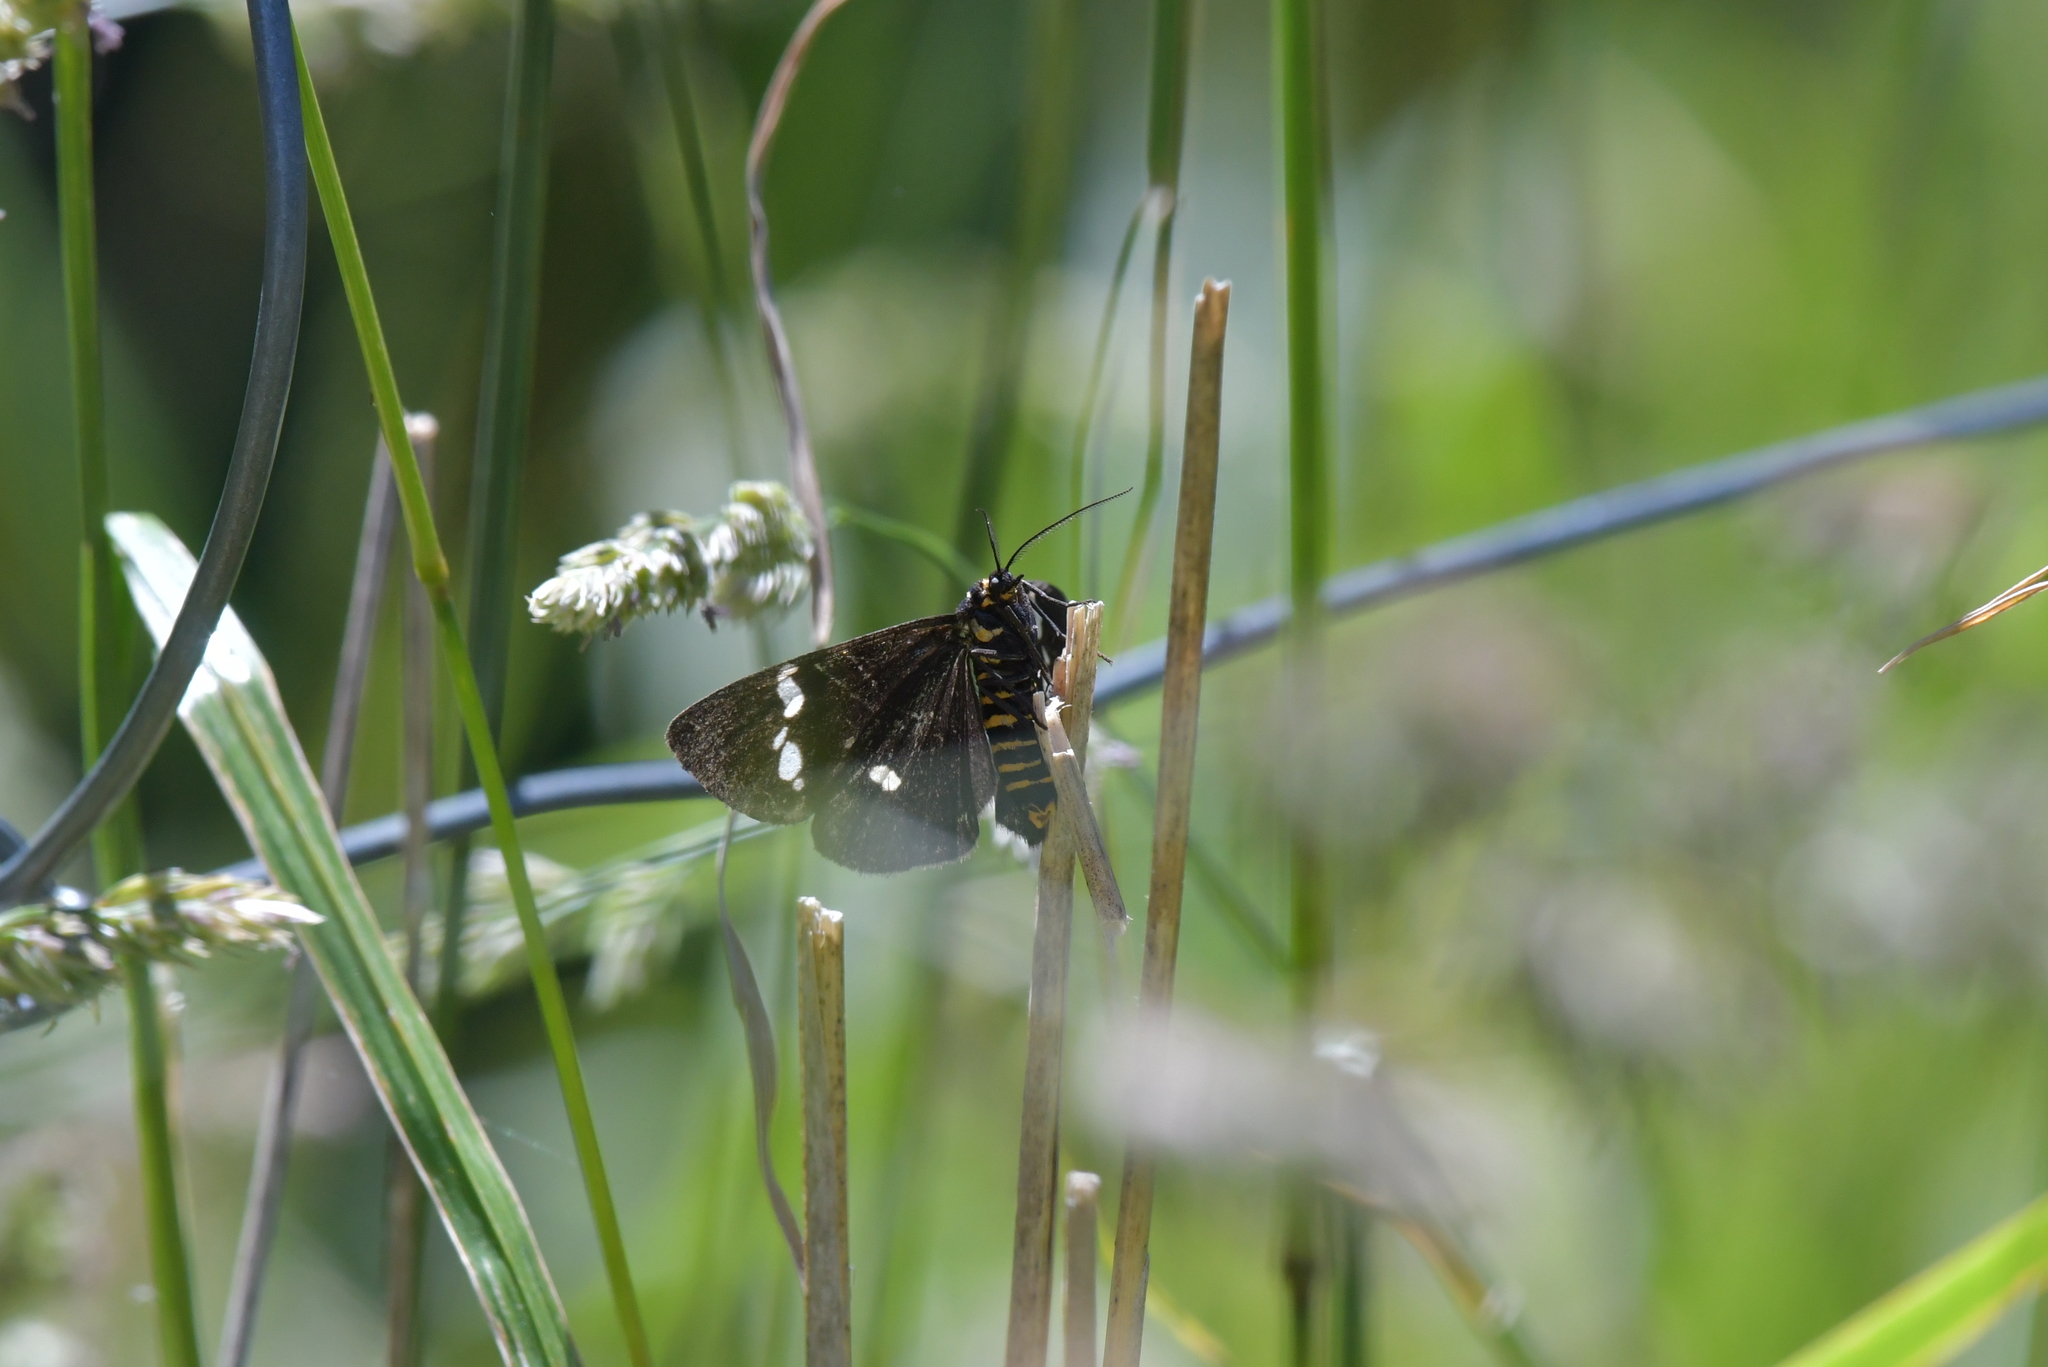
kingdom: Animalia
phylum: Arthropoda
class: Insecta
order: Lepidoptera
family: Erebidae
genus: Nyctemera
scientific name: Nyctemera annulatum
